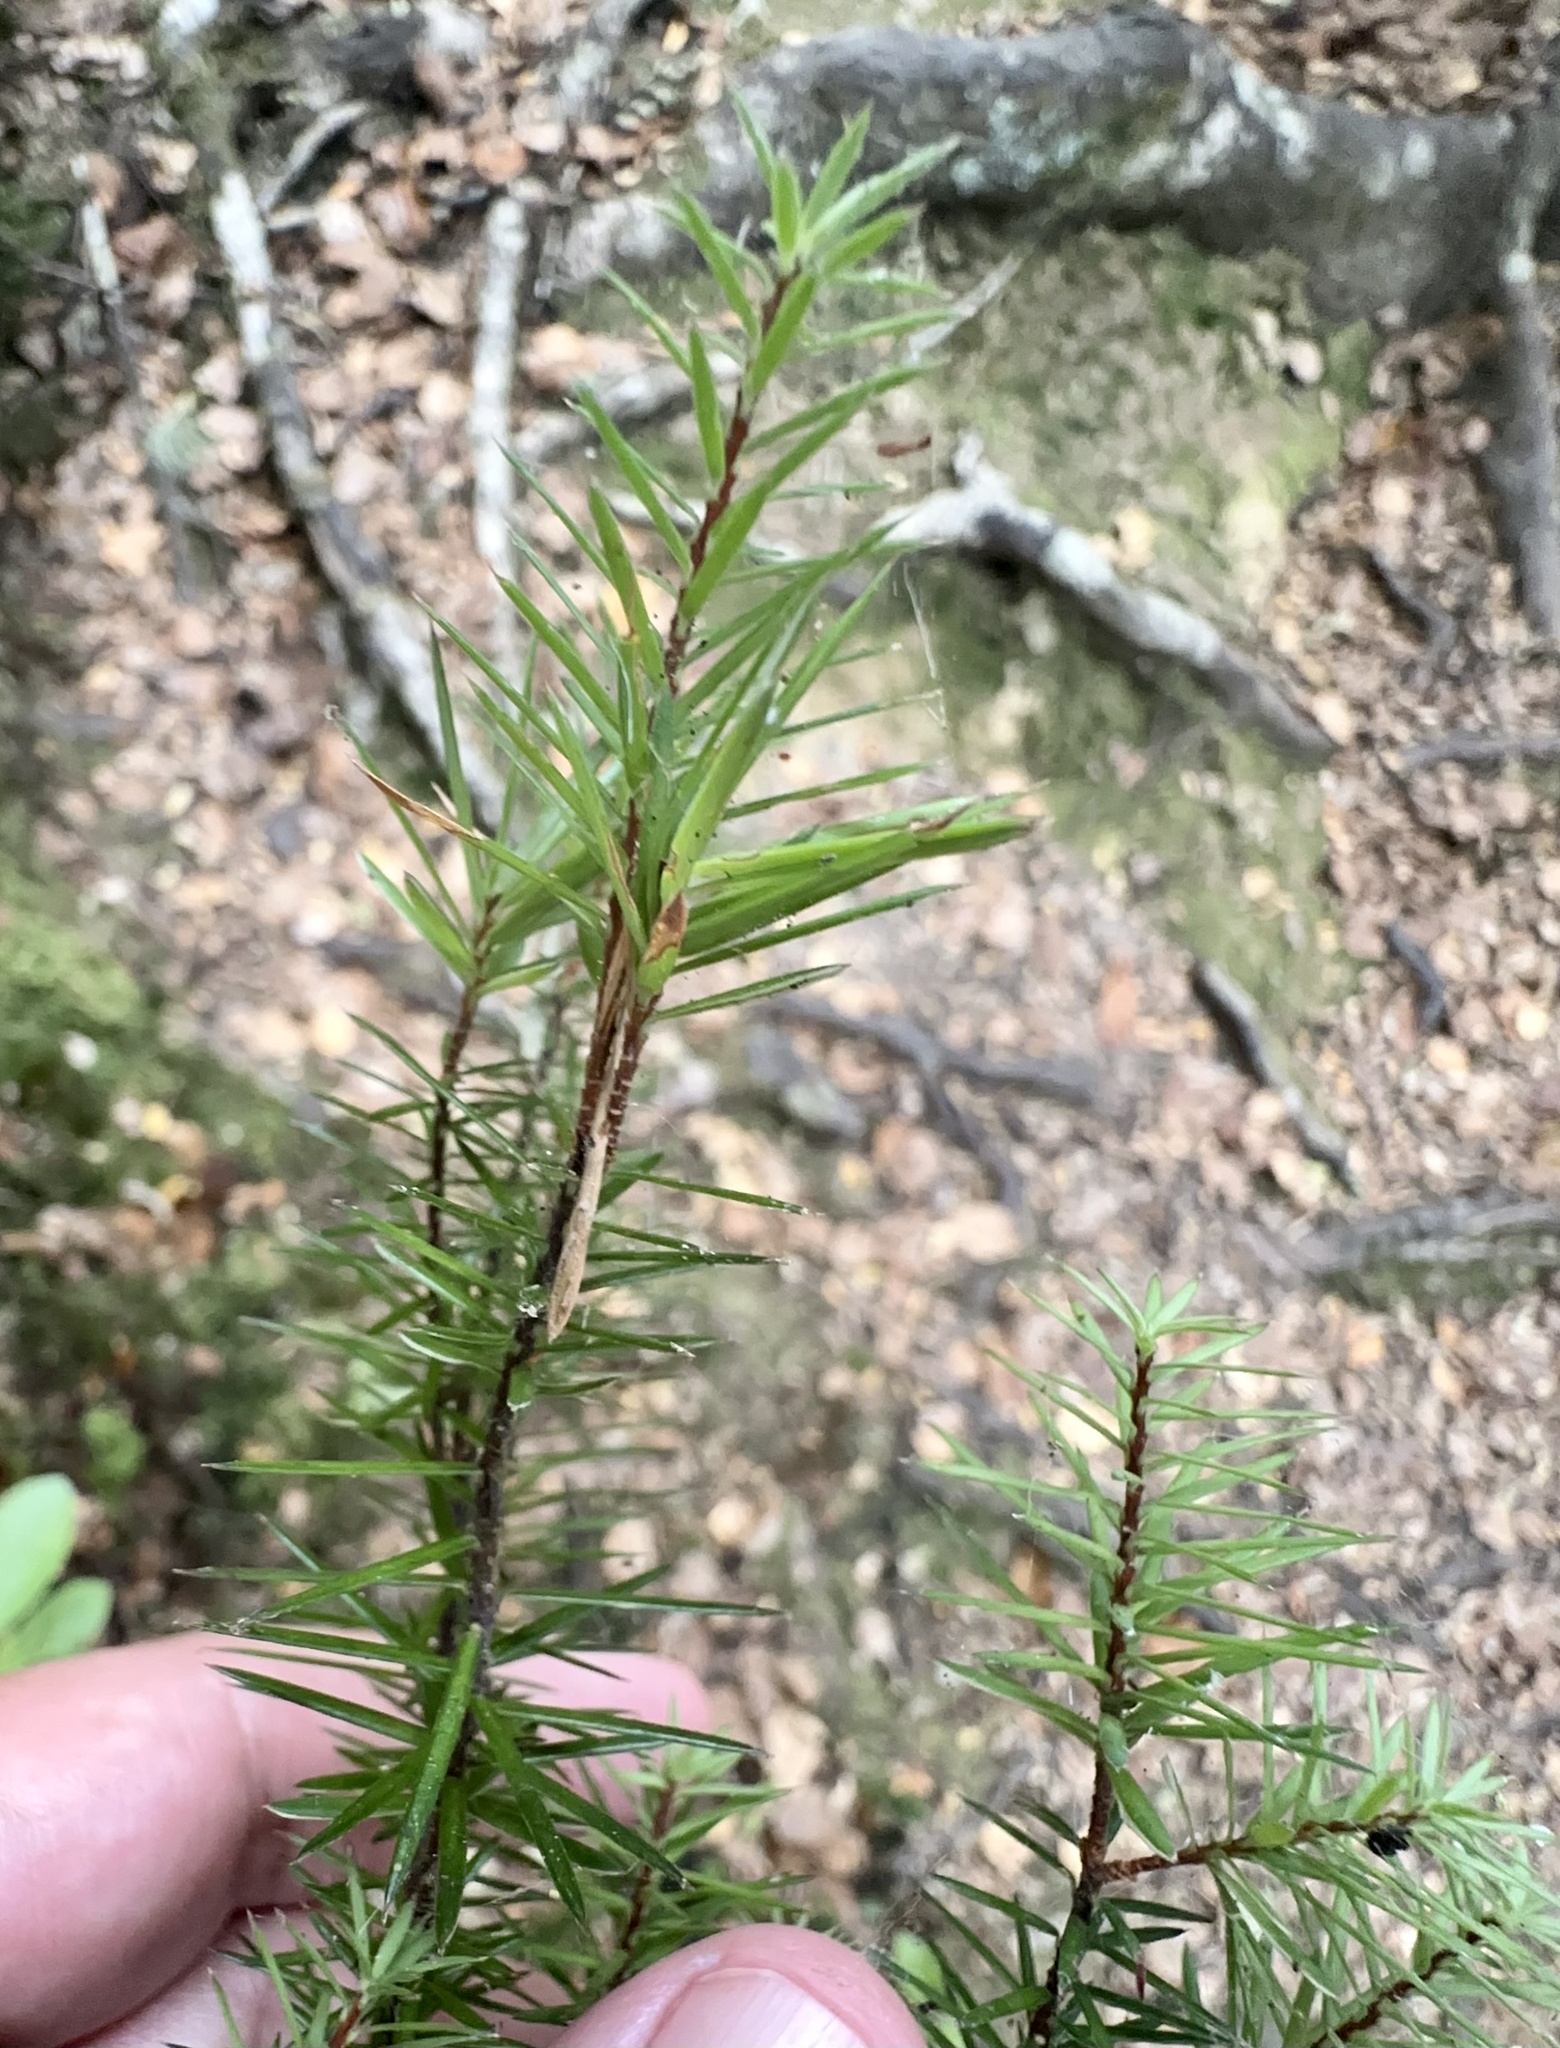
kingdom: Plantae
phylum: Tracheophyta
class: Magnoliopsida
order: Ericales
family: Ericaceae
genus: Leptecophylla
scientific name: Leptecophylla juniperina
